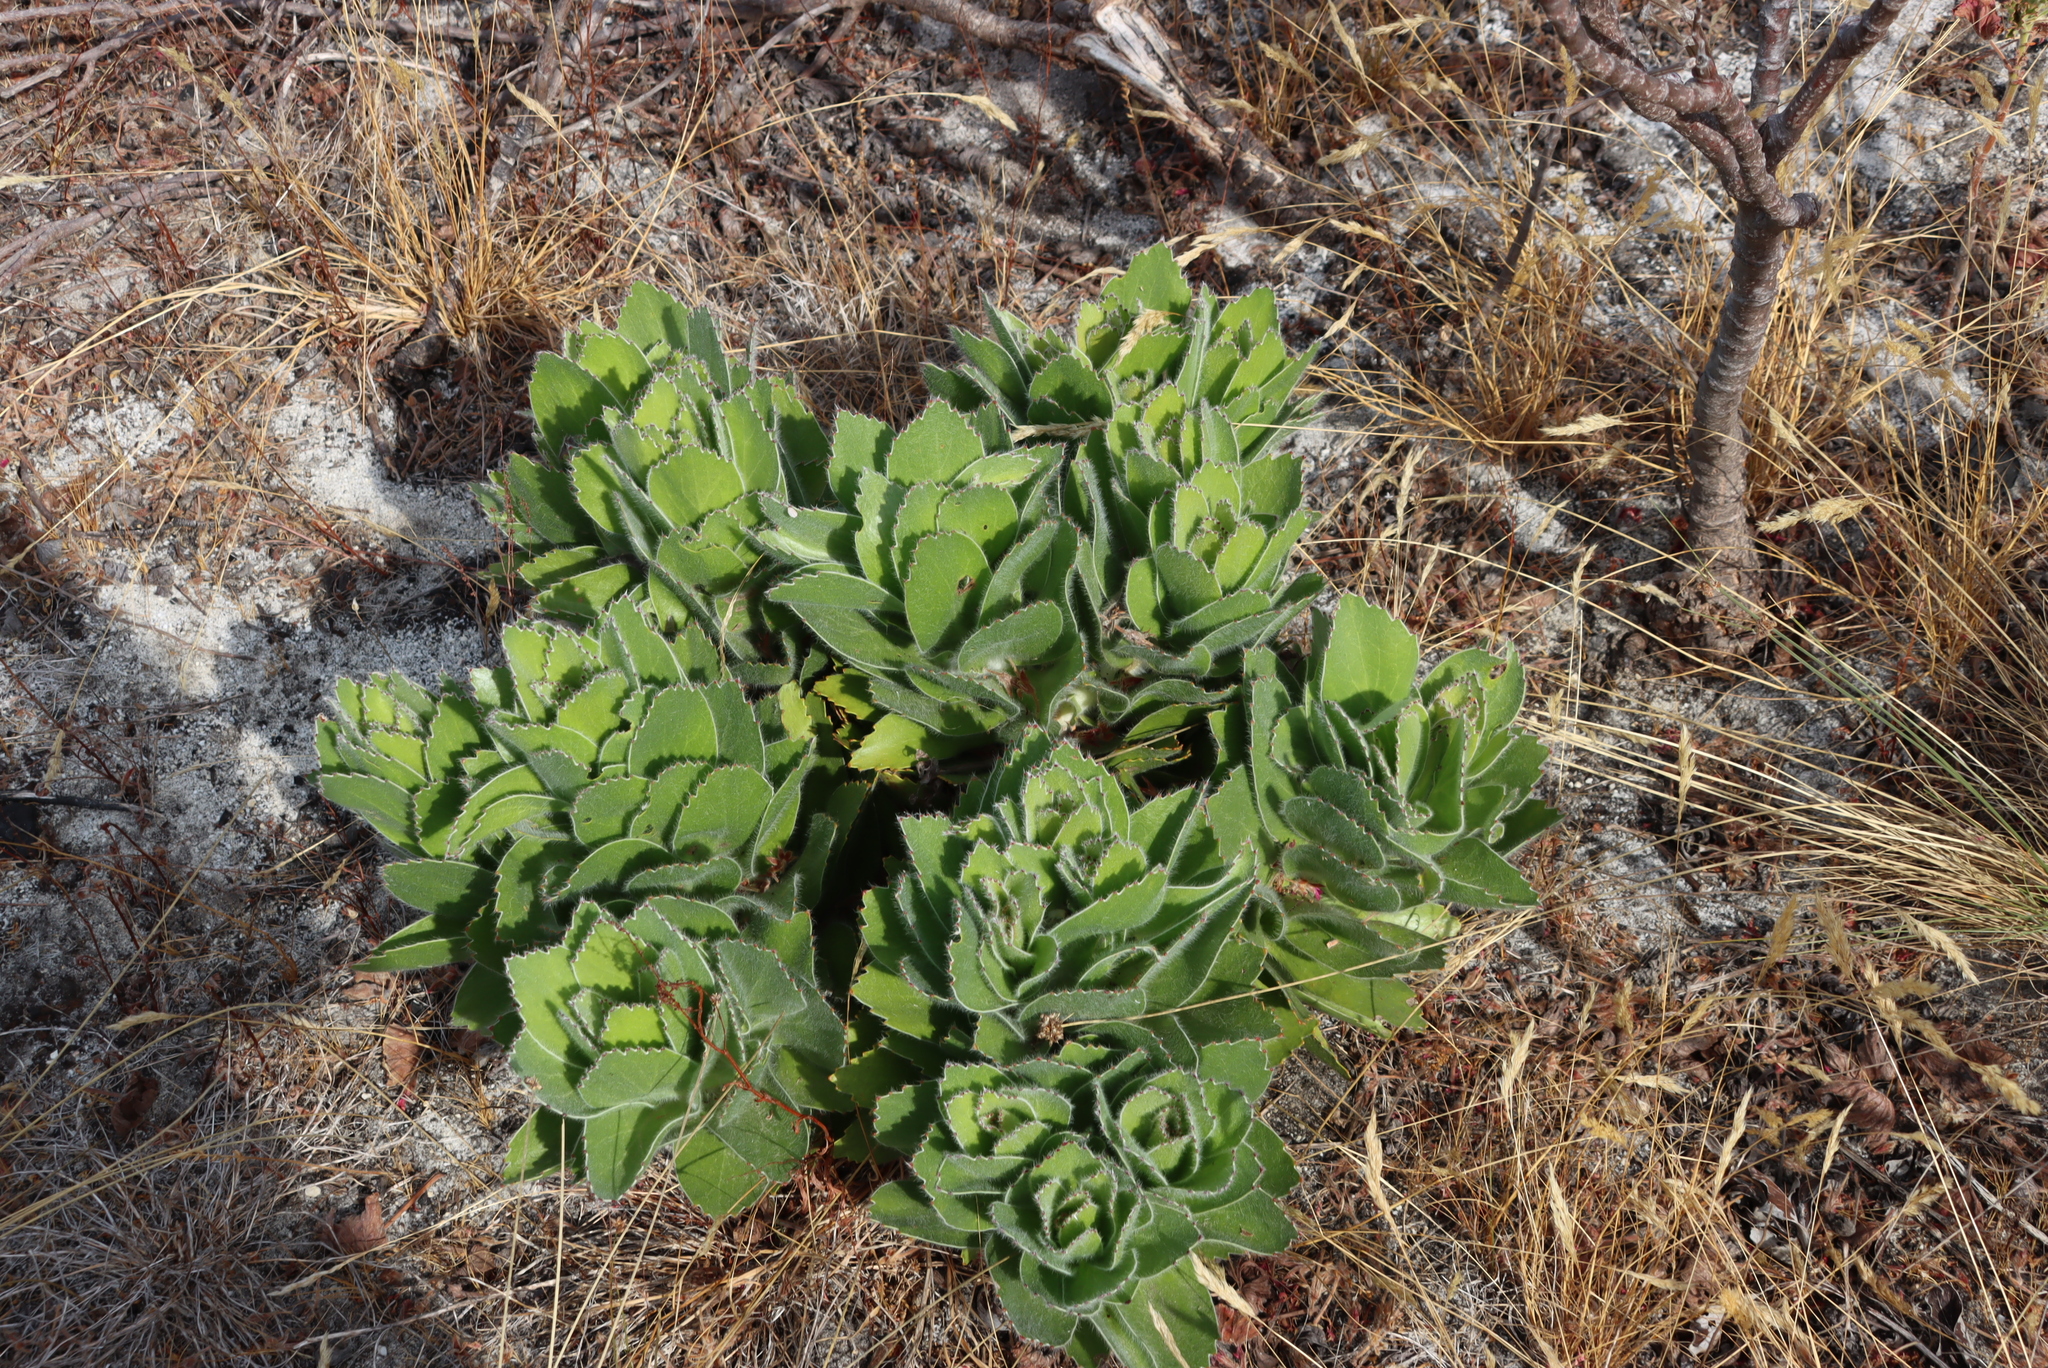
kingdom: Plantae
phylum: Tracheophyta
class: Magnoliopsida
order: Proteales
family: Proteaceae
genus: Leucospermum
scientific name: Leucospermum conocarpodendron
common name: Tree pincushion
